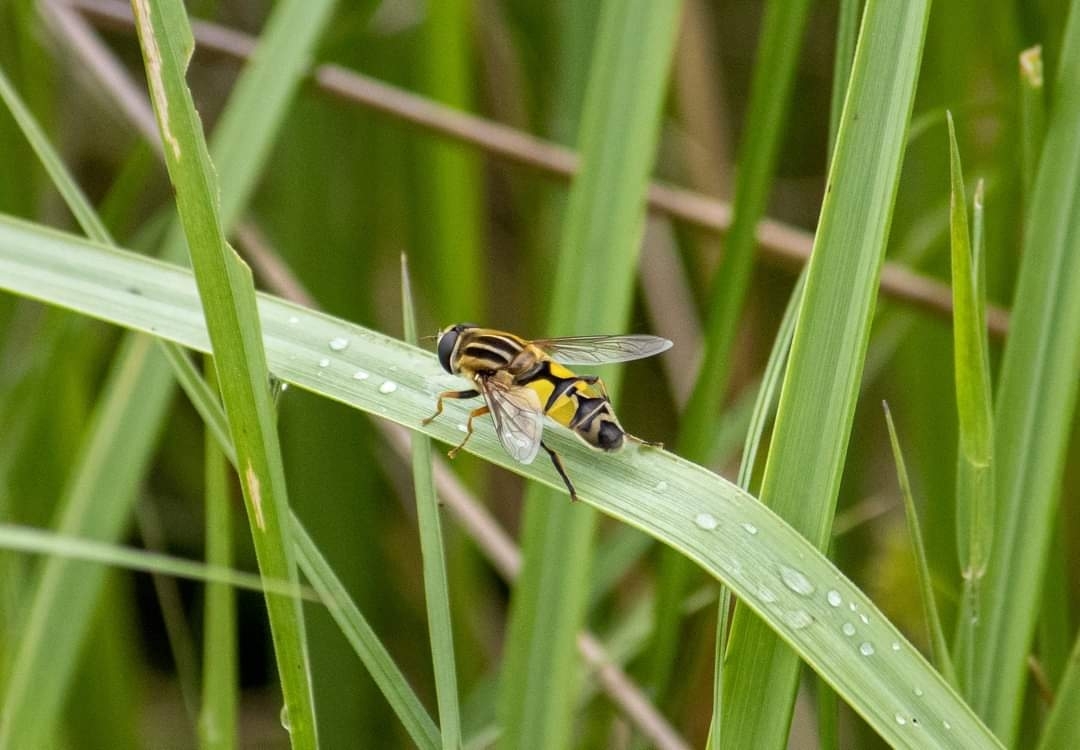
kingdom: Animalia
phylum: Arthropoda
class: Insecta
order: Diptera
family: Syrphidae
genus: Helophilus
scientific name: Helophilus trivittatus
